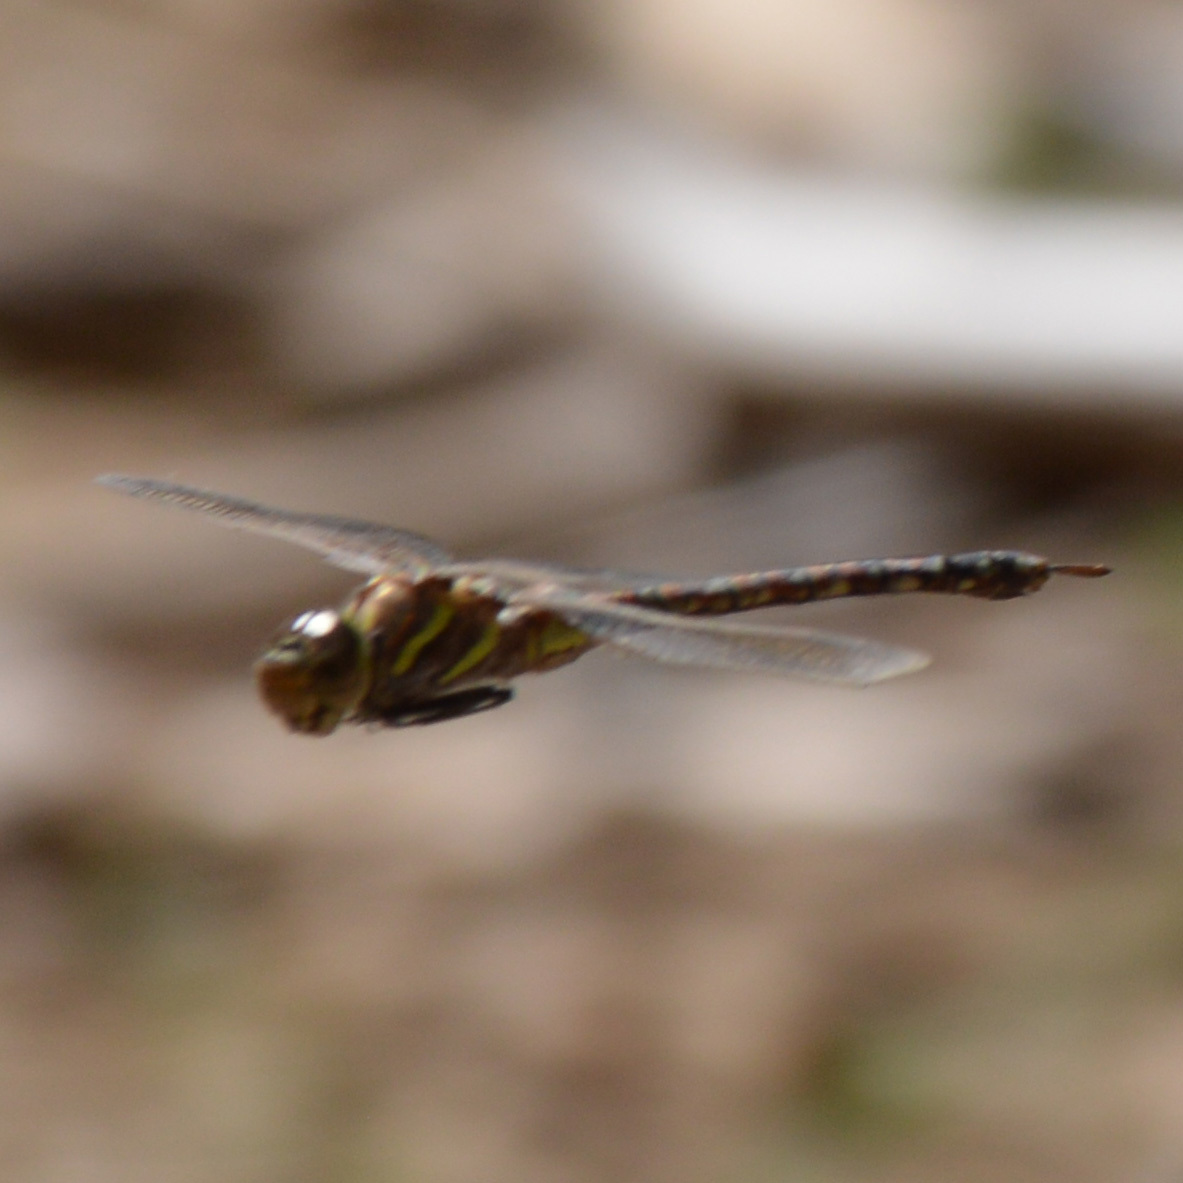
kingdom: Animalia
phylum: Arthropoda
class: Insecta
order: Odonata
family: Aeshnidae
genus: Rhionaeschna
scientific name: Rhionaeschna multicolor
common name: Blue-eyed darner
